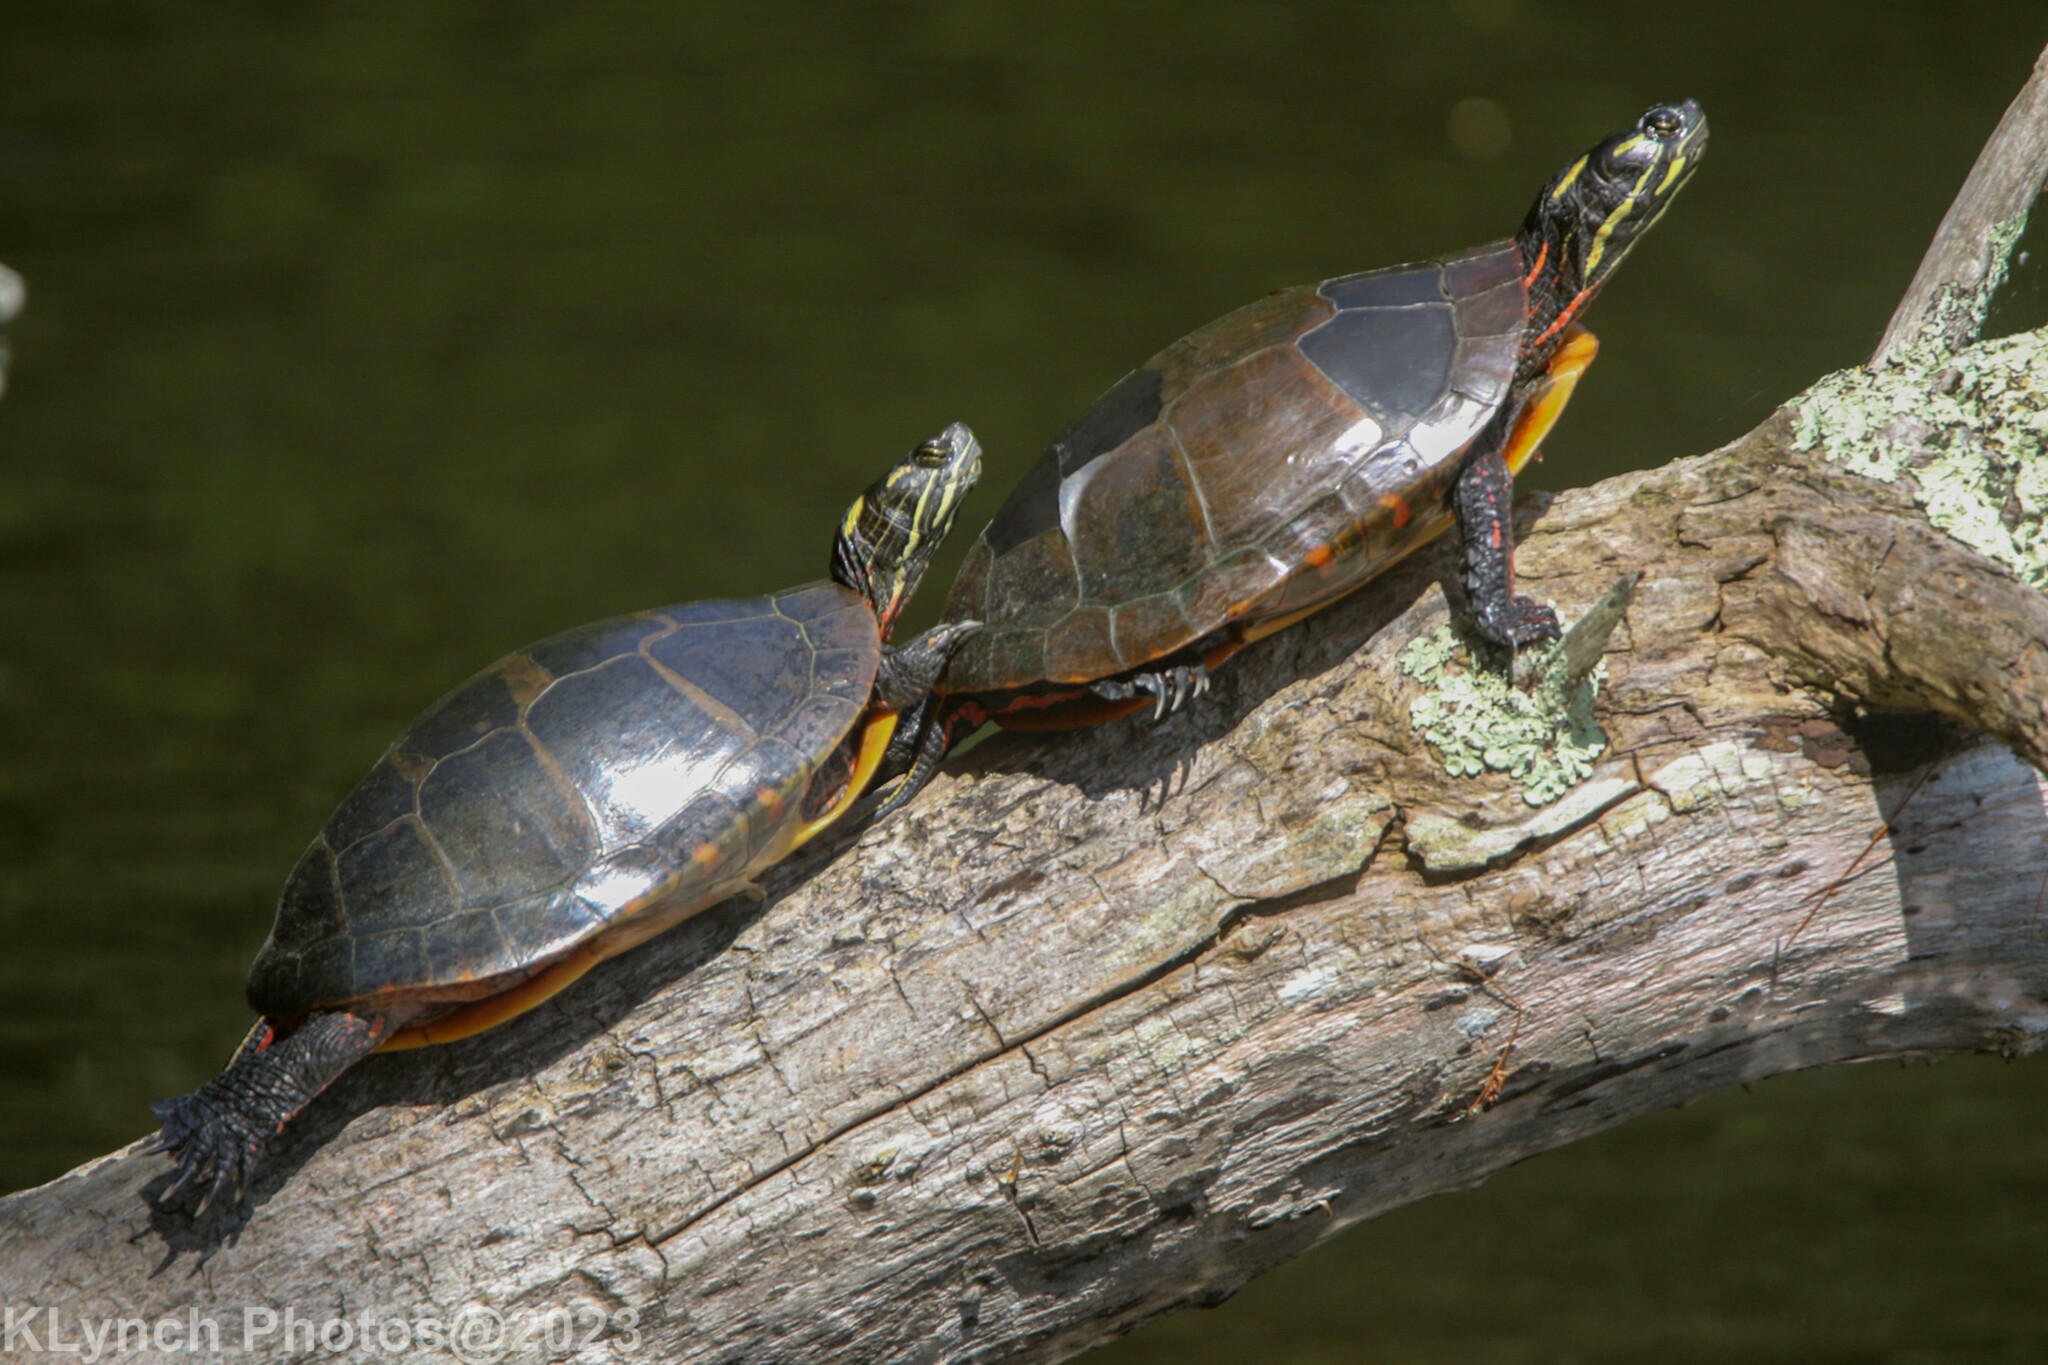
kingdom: Animalia
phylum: Chordata
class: Testudines
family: Emydidae
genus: Chrysemys
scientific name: Chrysemys picta
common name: Painted turtle
